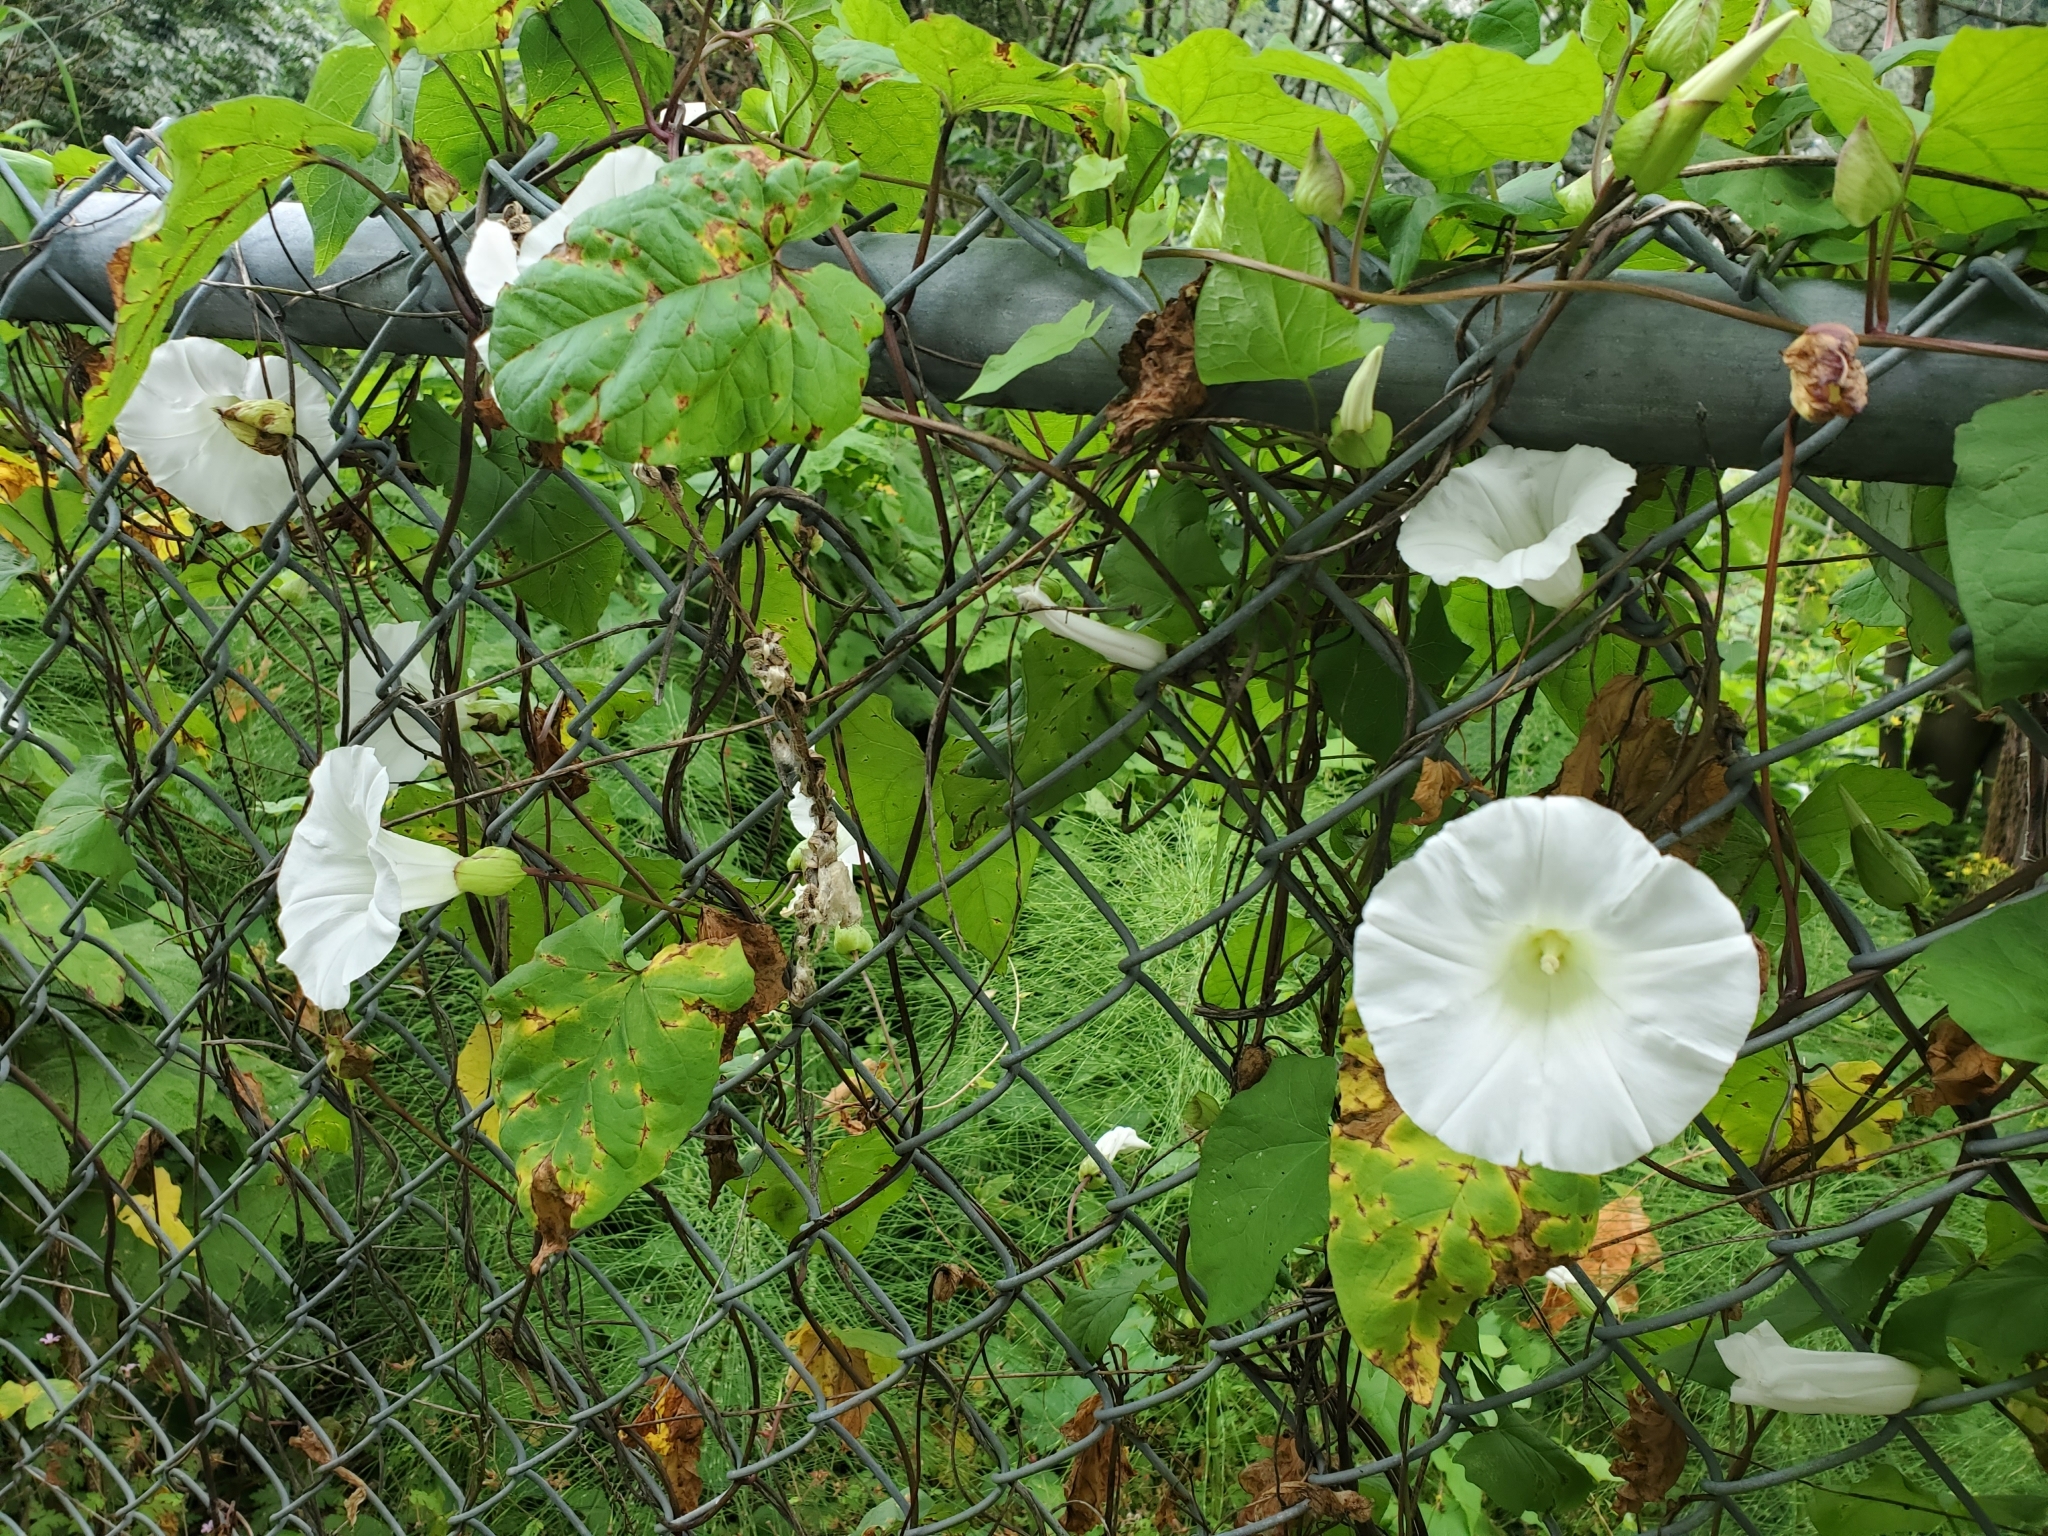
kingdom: Plantae
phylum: Tracheophyta
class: Magnoliopsida
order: Solanales
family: Convolvulaceae
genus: Calystegia
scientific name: Calystegia sepium
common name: Hedge bindweed
